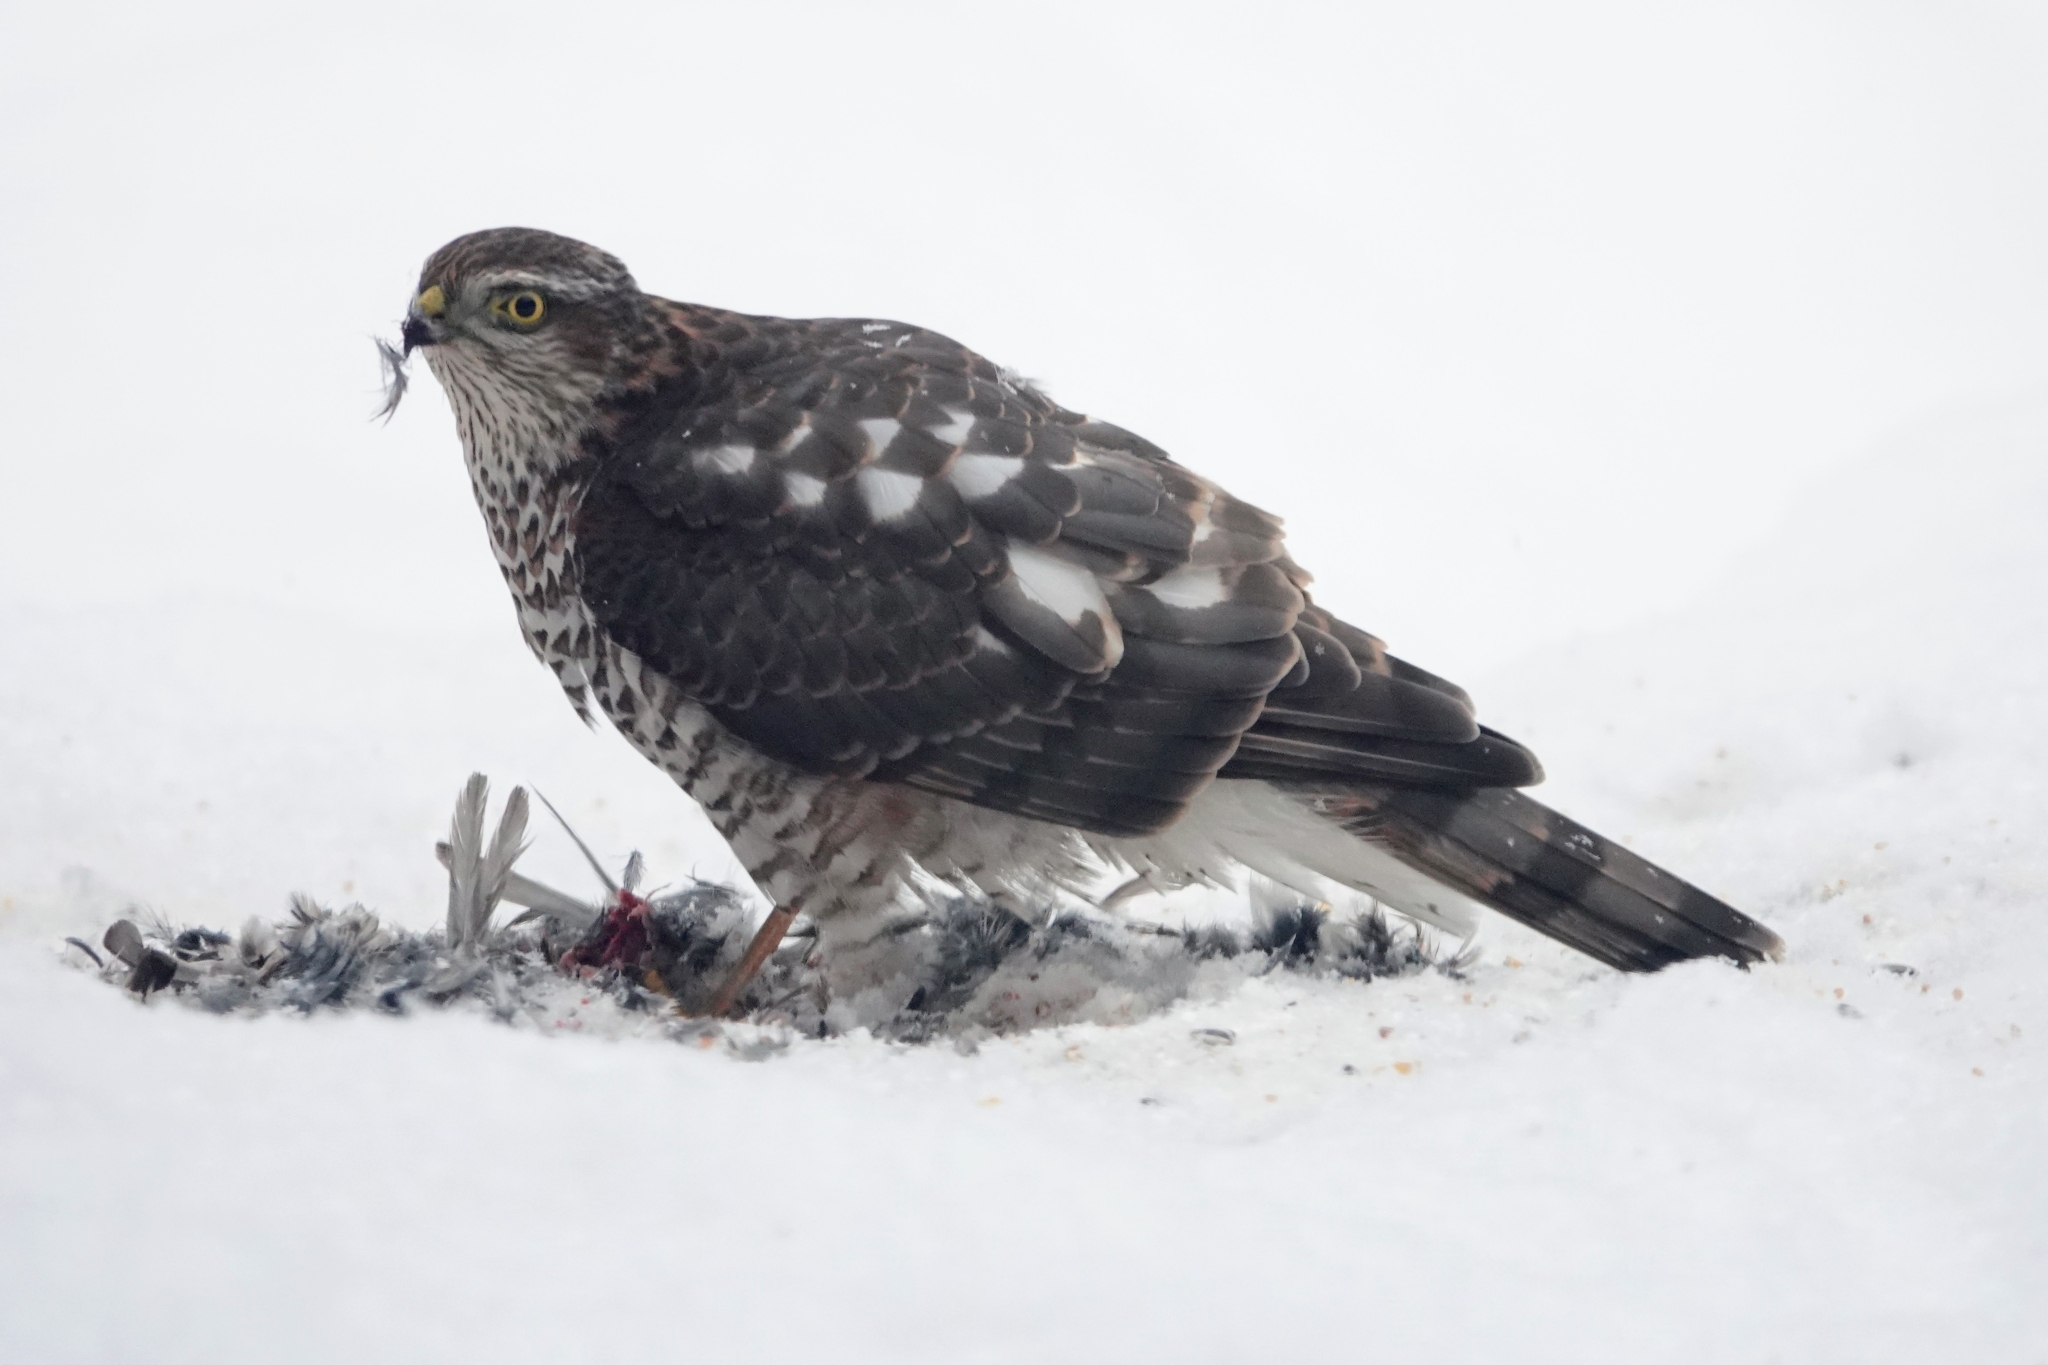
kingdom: Animalia
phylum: Chordata
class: Aves
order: Accipitriformes
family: Accipitridae
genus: Accipiter
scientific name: Accipiter nisus
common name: Eurasian sparrowhawk
